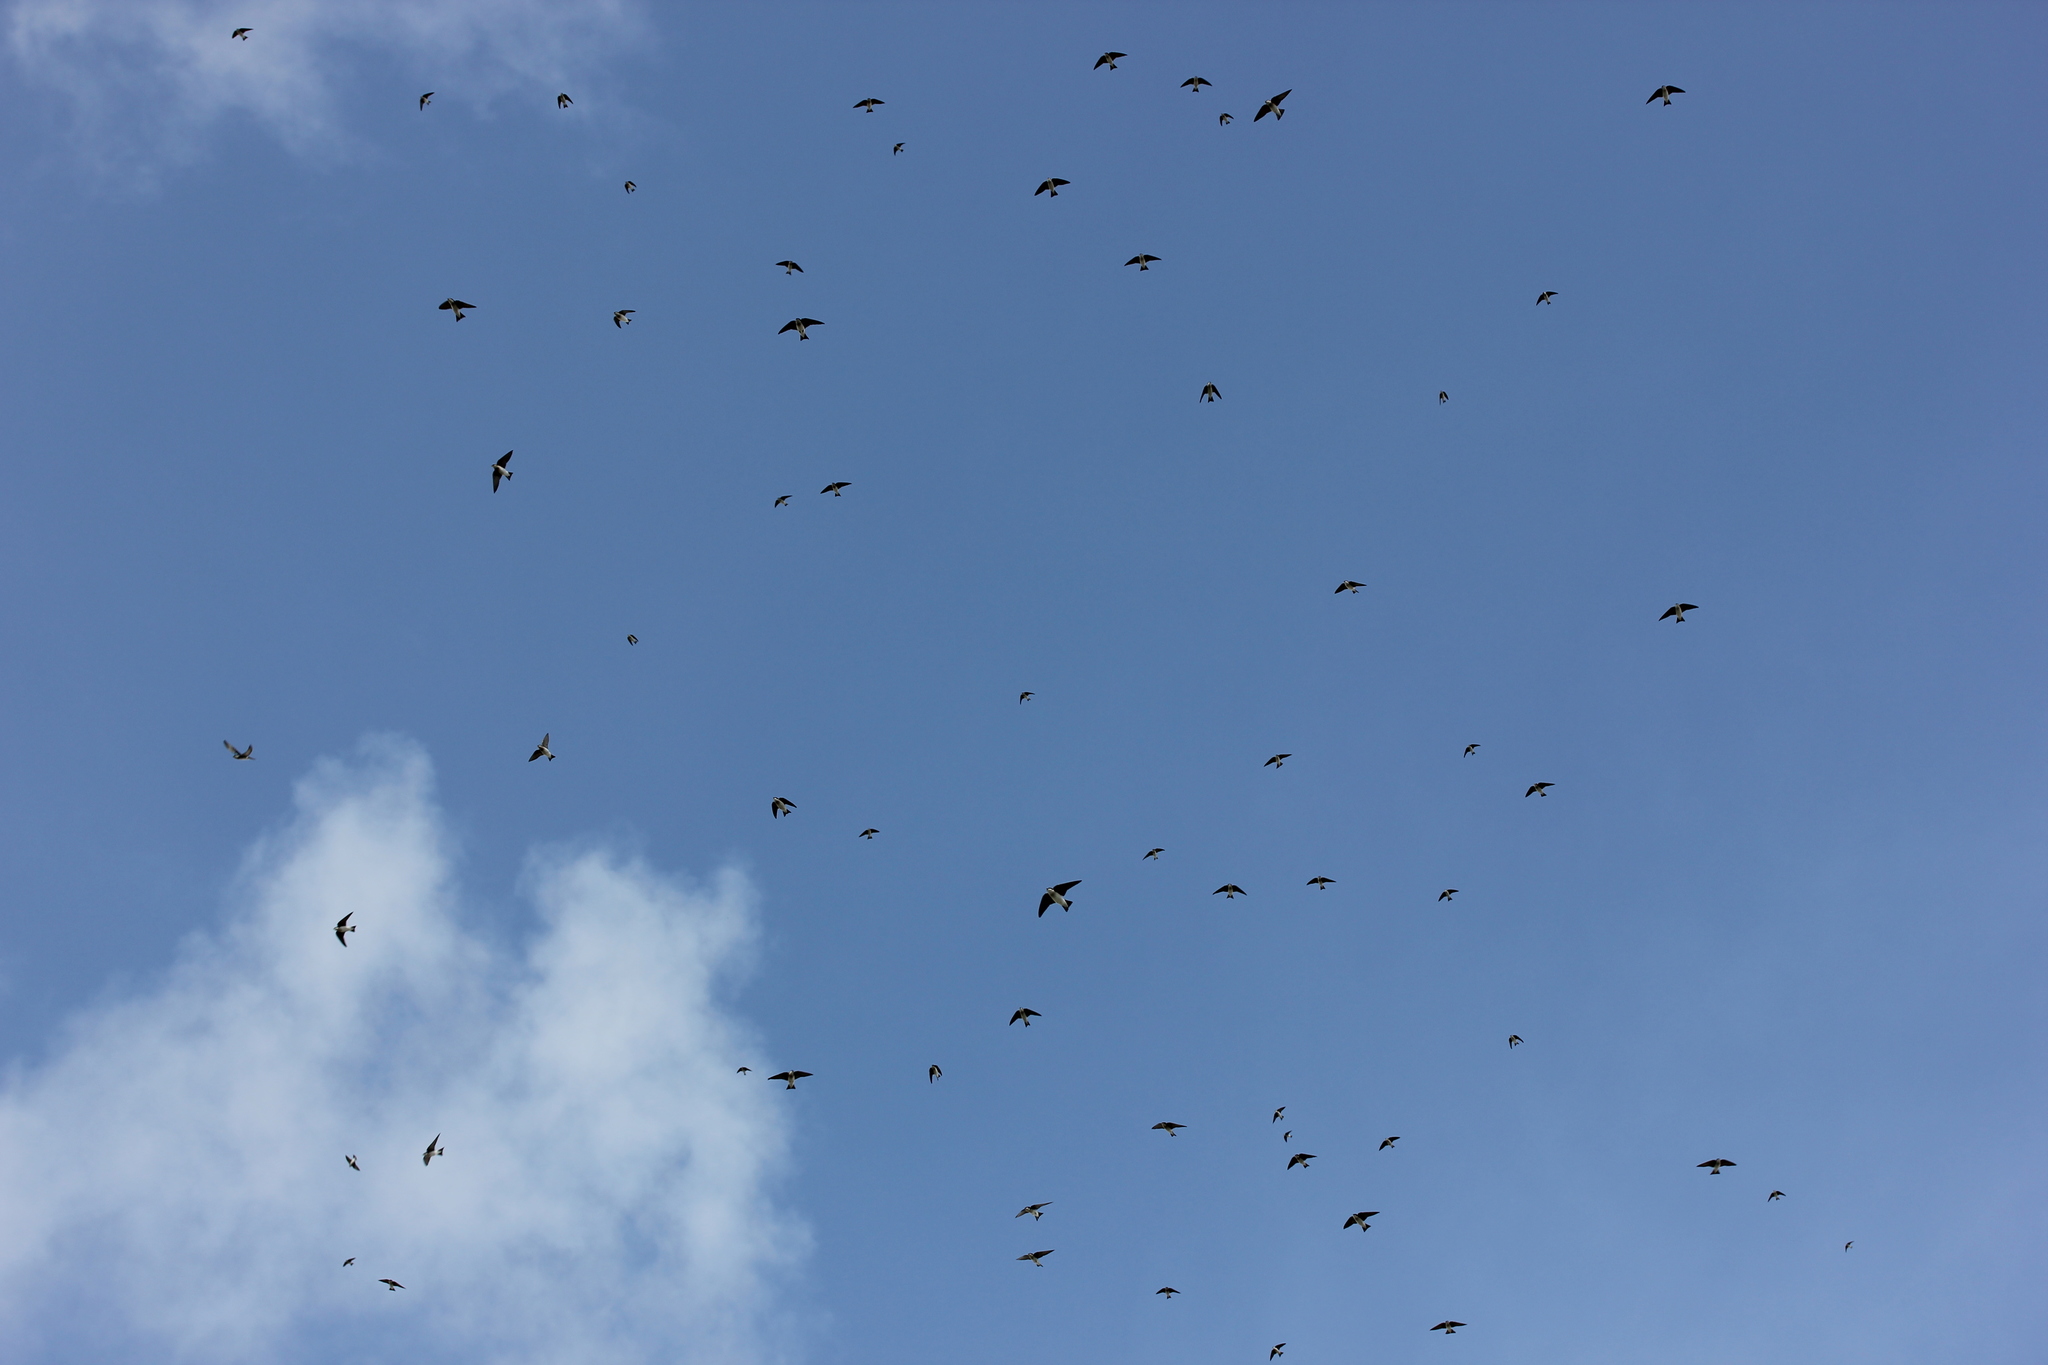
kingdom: Animalia
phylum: Chordata
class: Aves
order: Passeriformes
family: Hirundinidae
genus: Tachycineta
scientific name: Tachycineta bicolor
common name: Tree swallow
